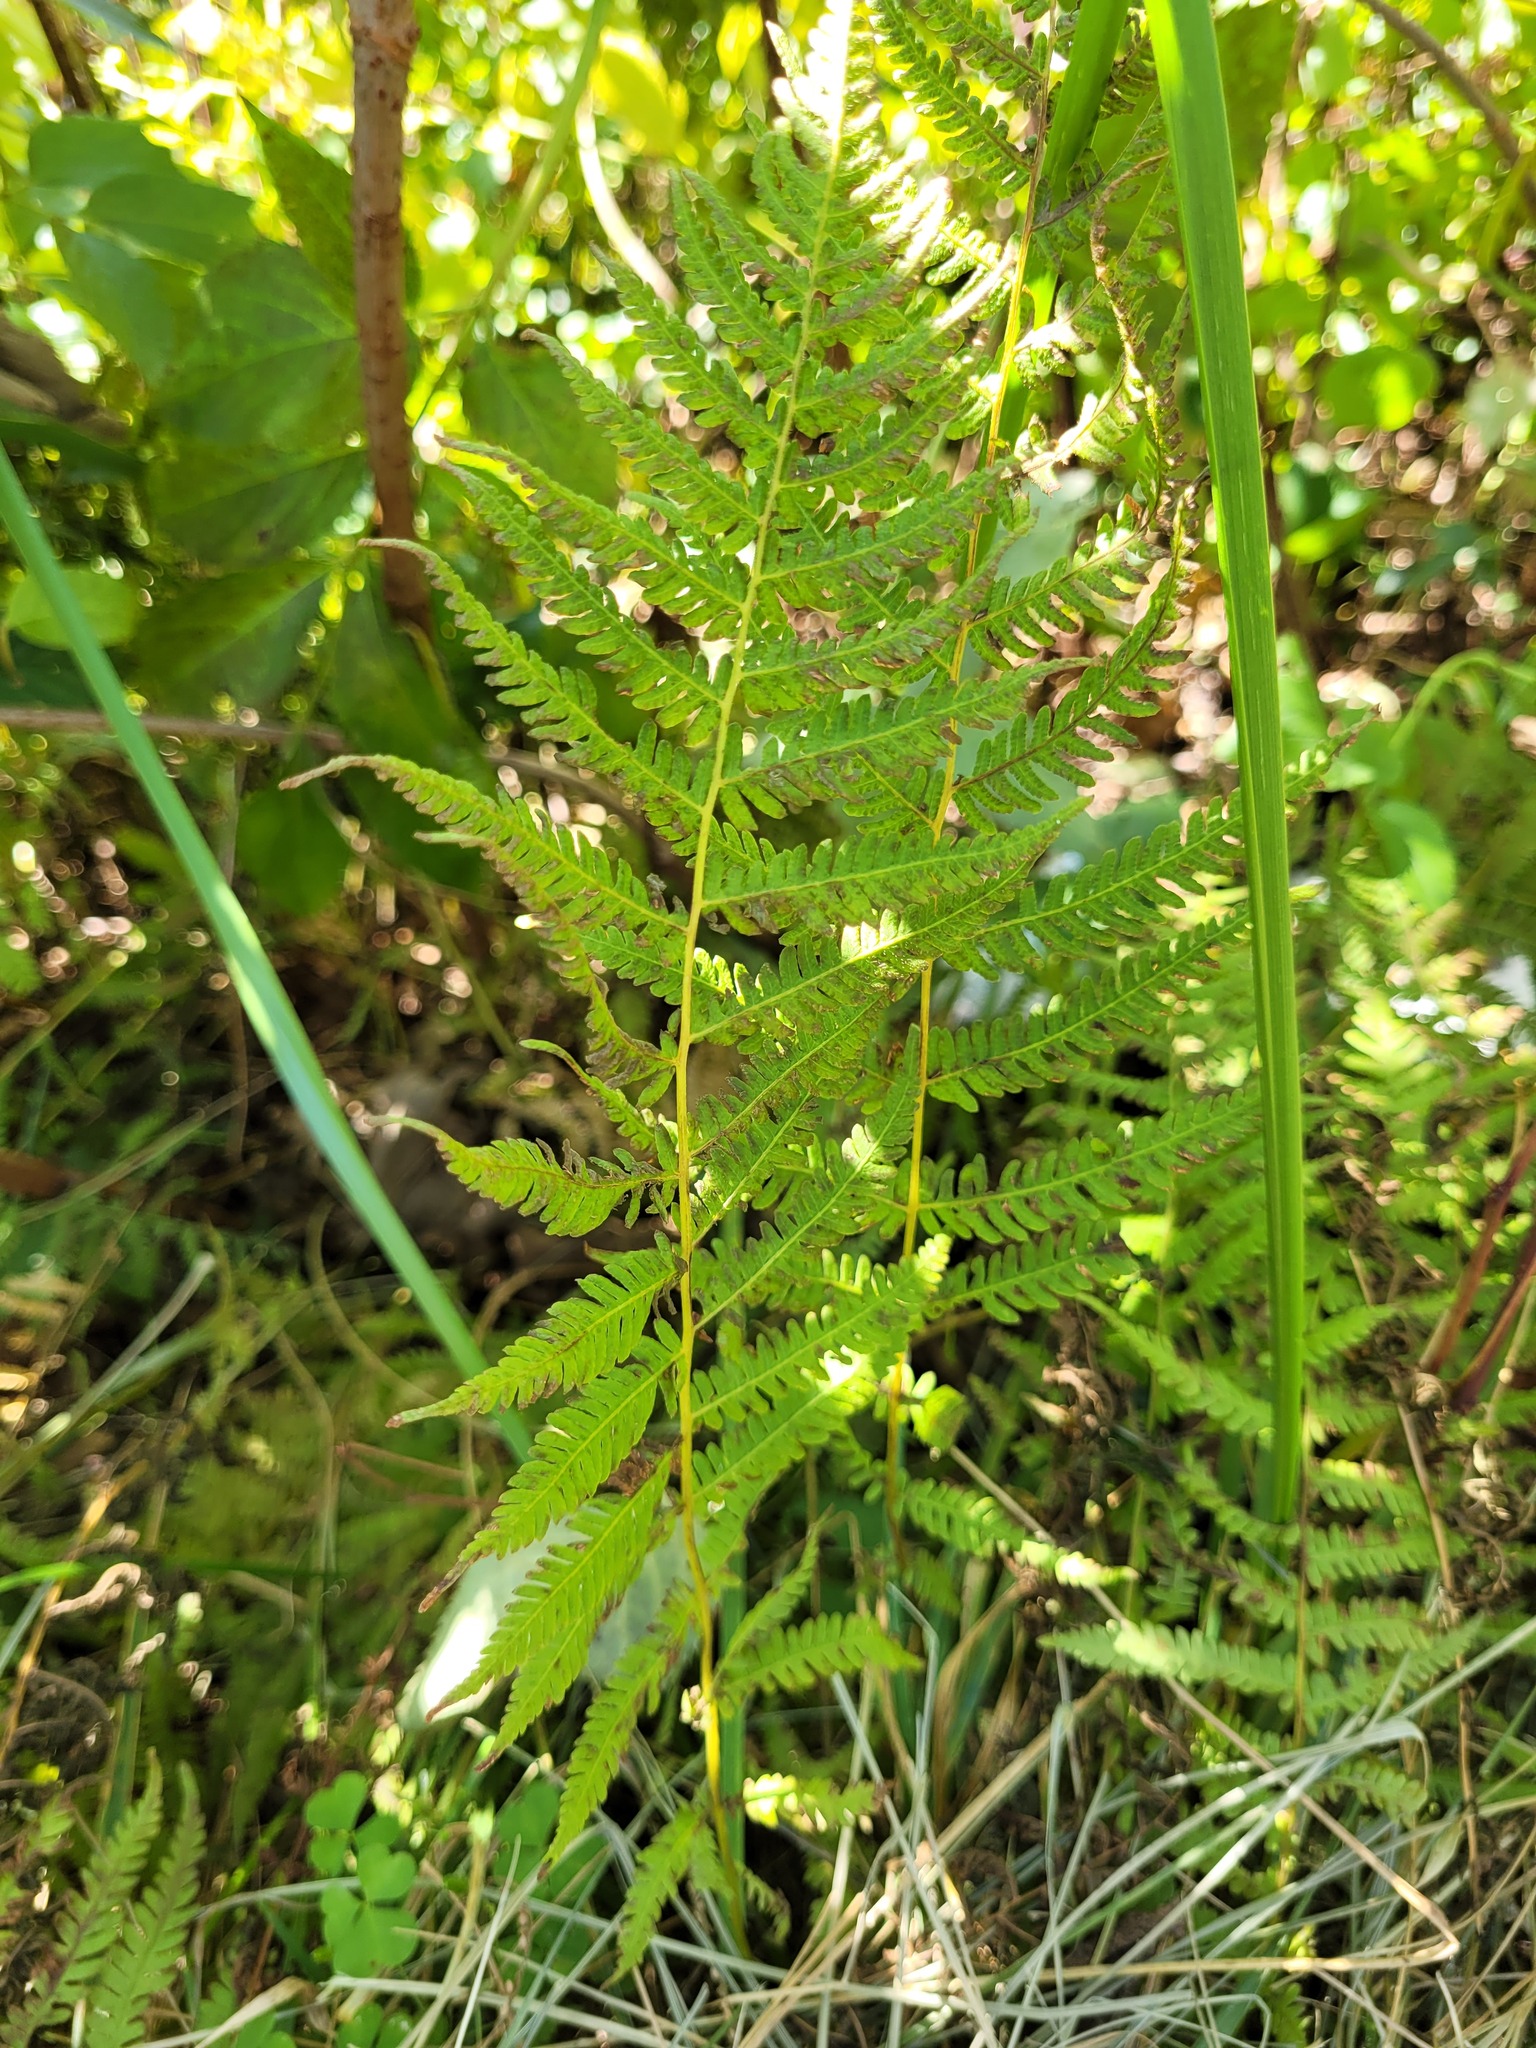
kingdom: Plantae
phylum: Tracheophyta
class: Polypodiopsida
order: Polypodiales
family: Thelypteridaceae
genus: Amauropelta
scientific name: Amauropelta noveboracensis
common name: New york fern
